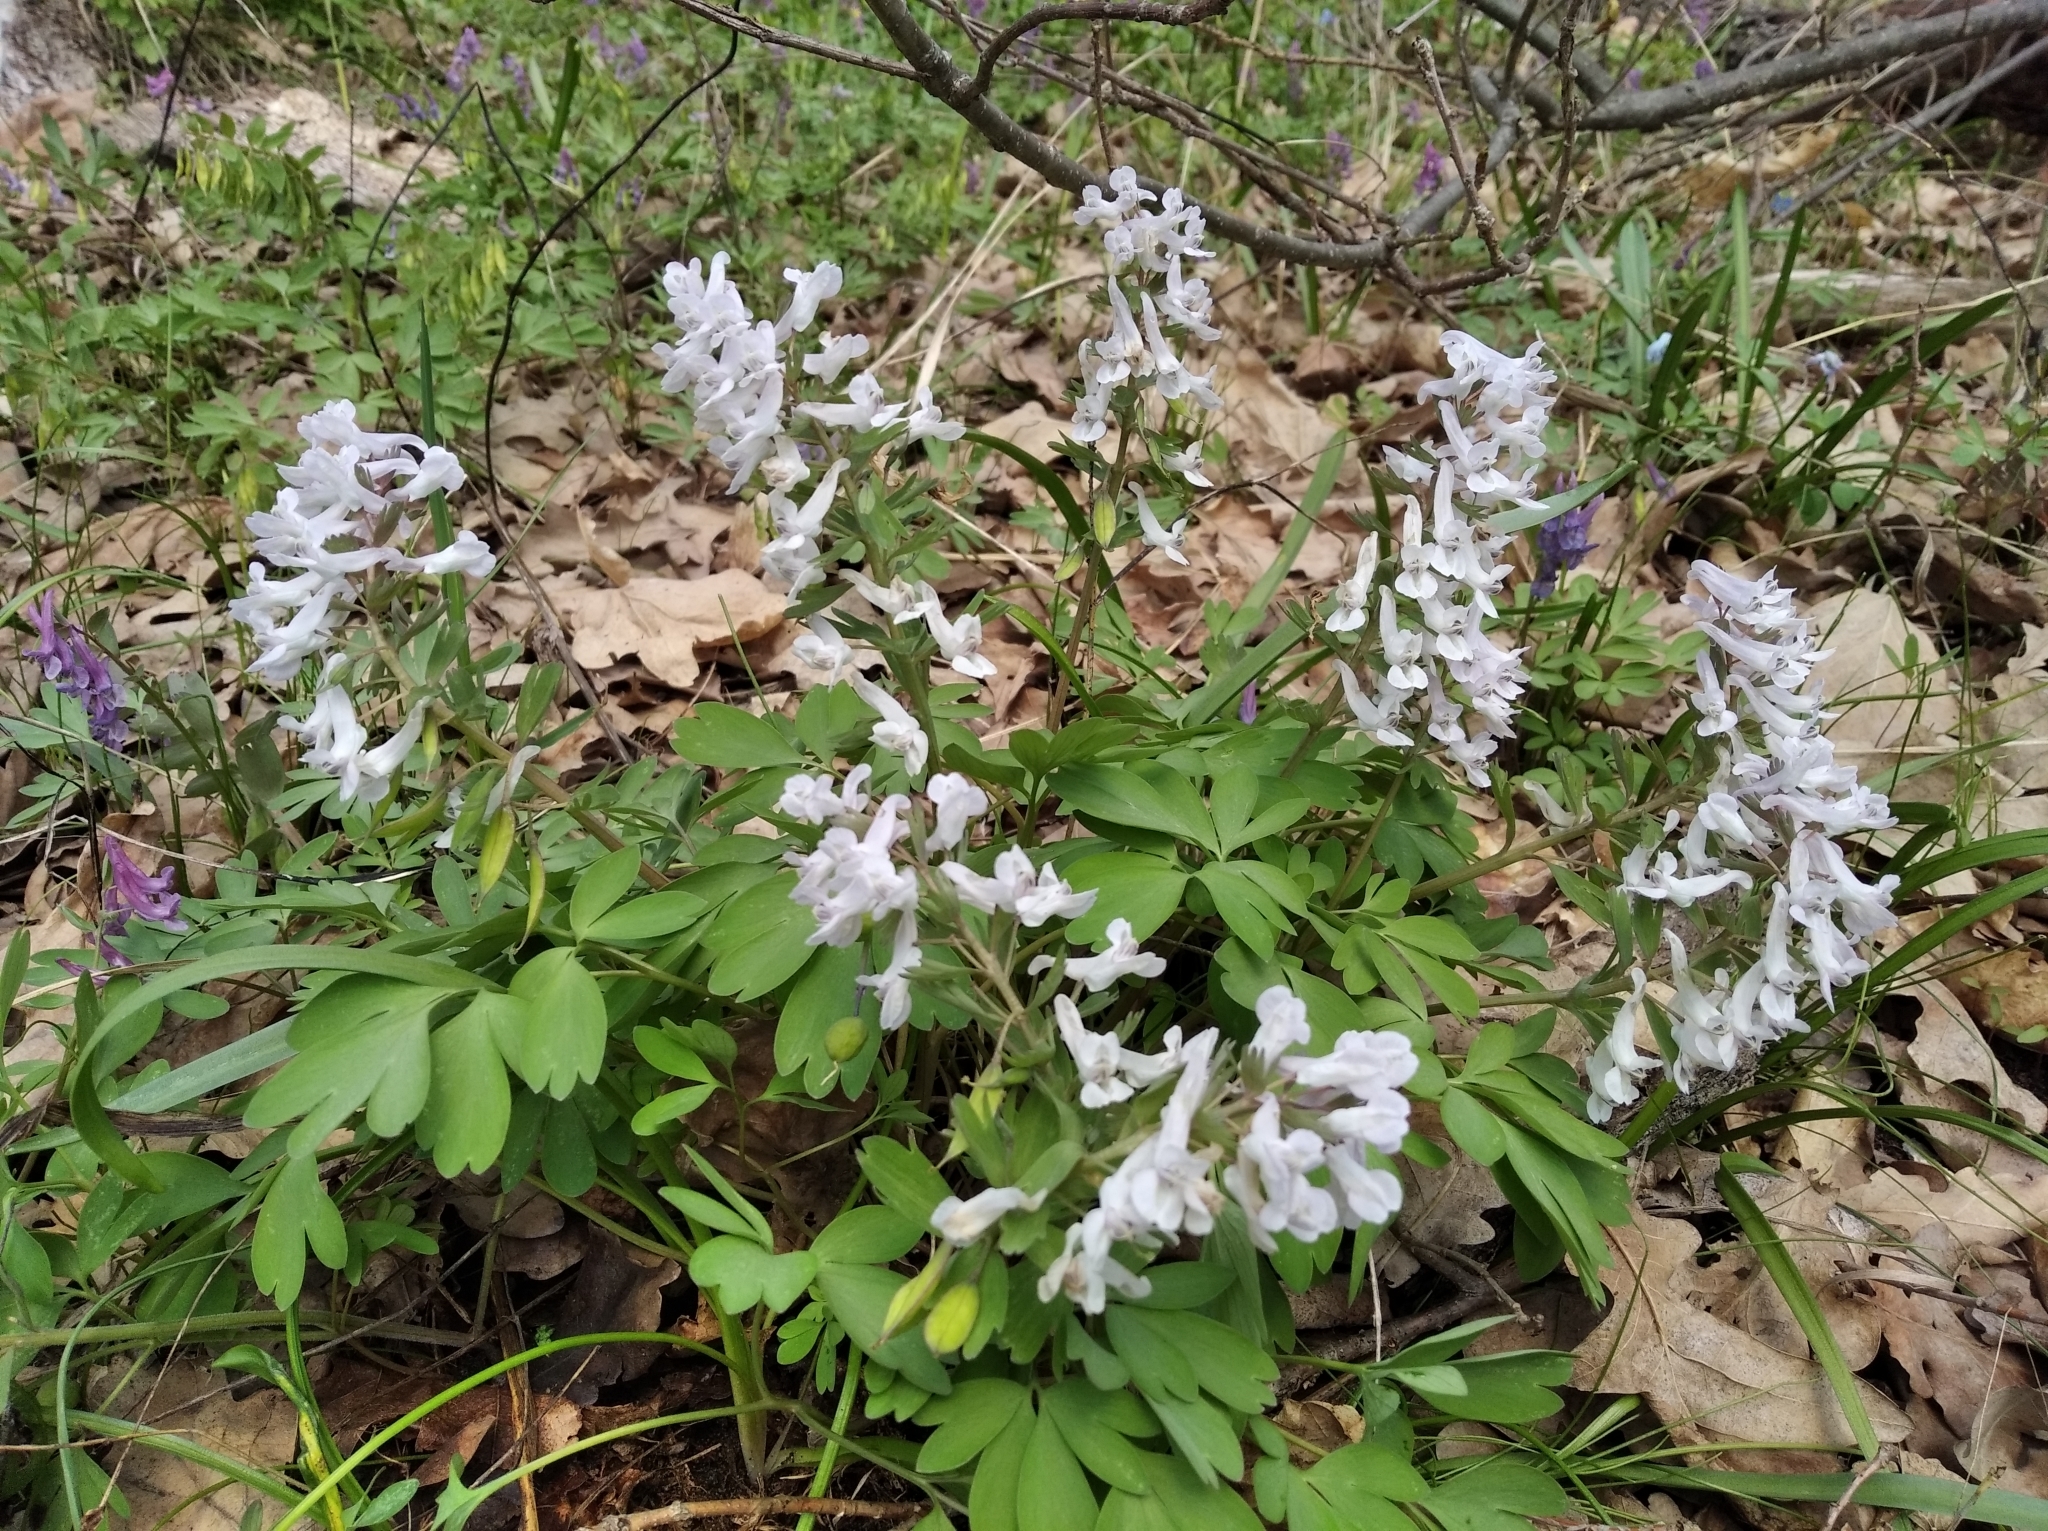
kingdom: Plantae
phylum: Tracheophyta
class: Magnoliopsida
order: Ranunculales
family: Papaveraceae
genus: Corydalis
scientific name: Corydalis solida
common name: Bird-in-a-bush
